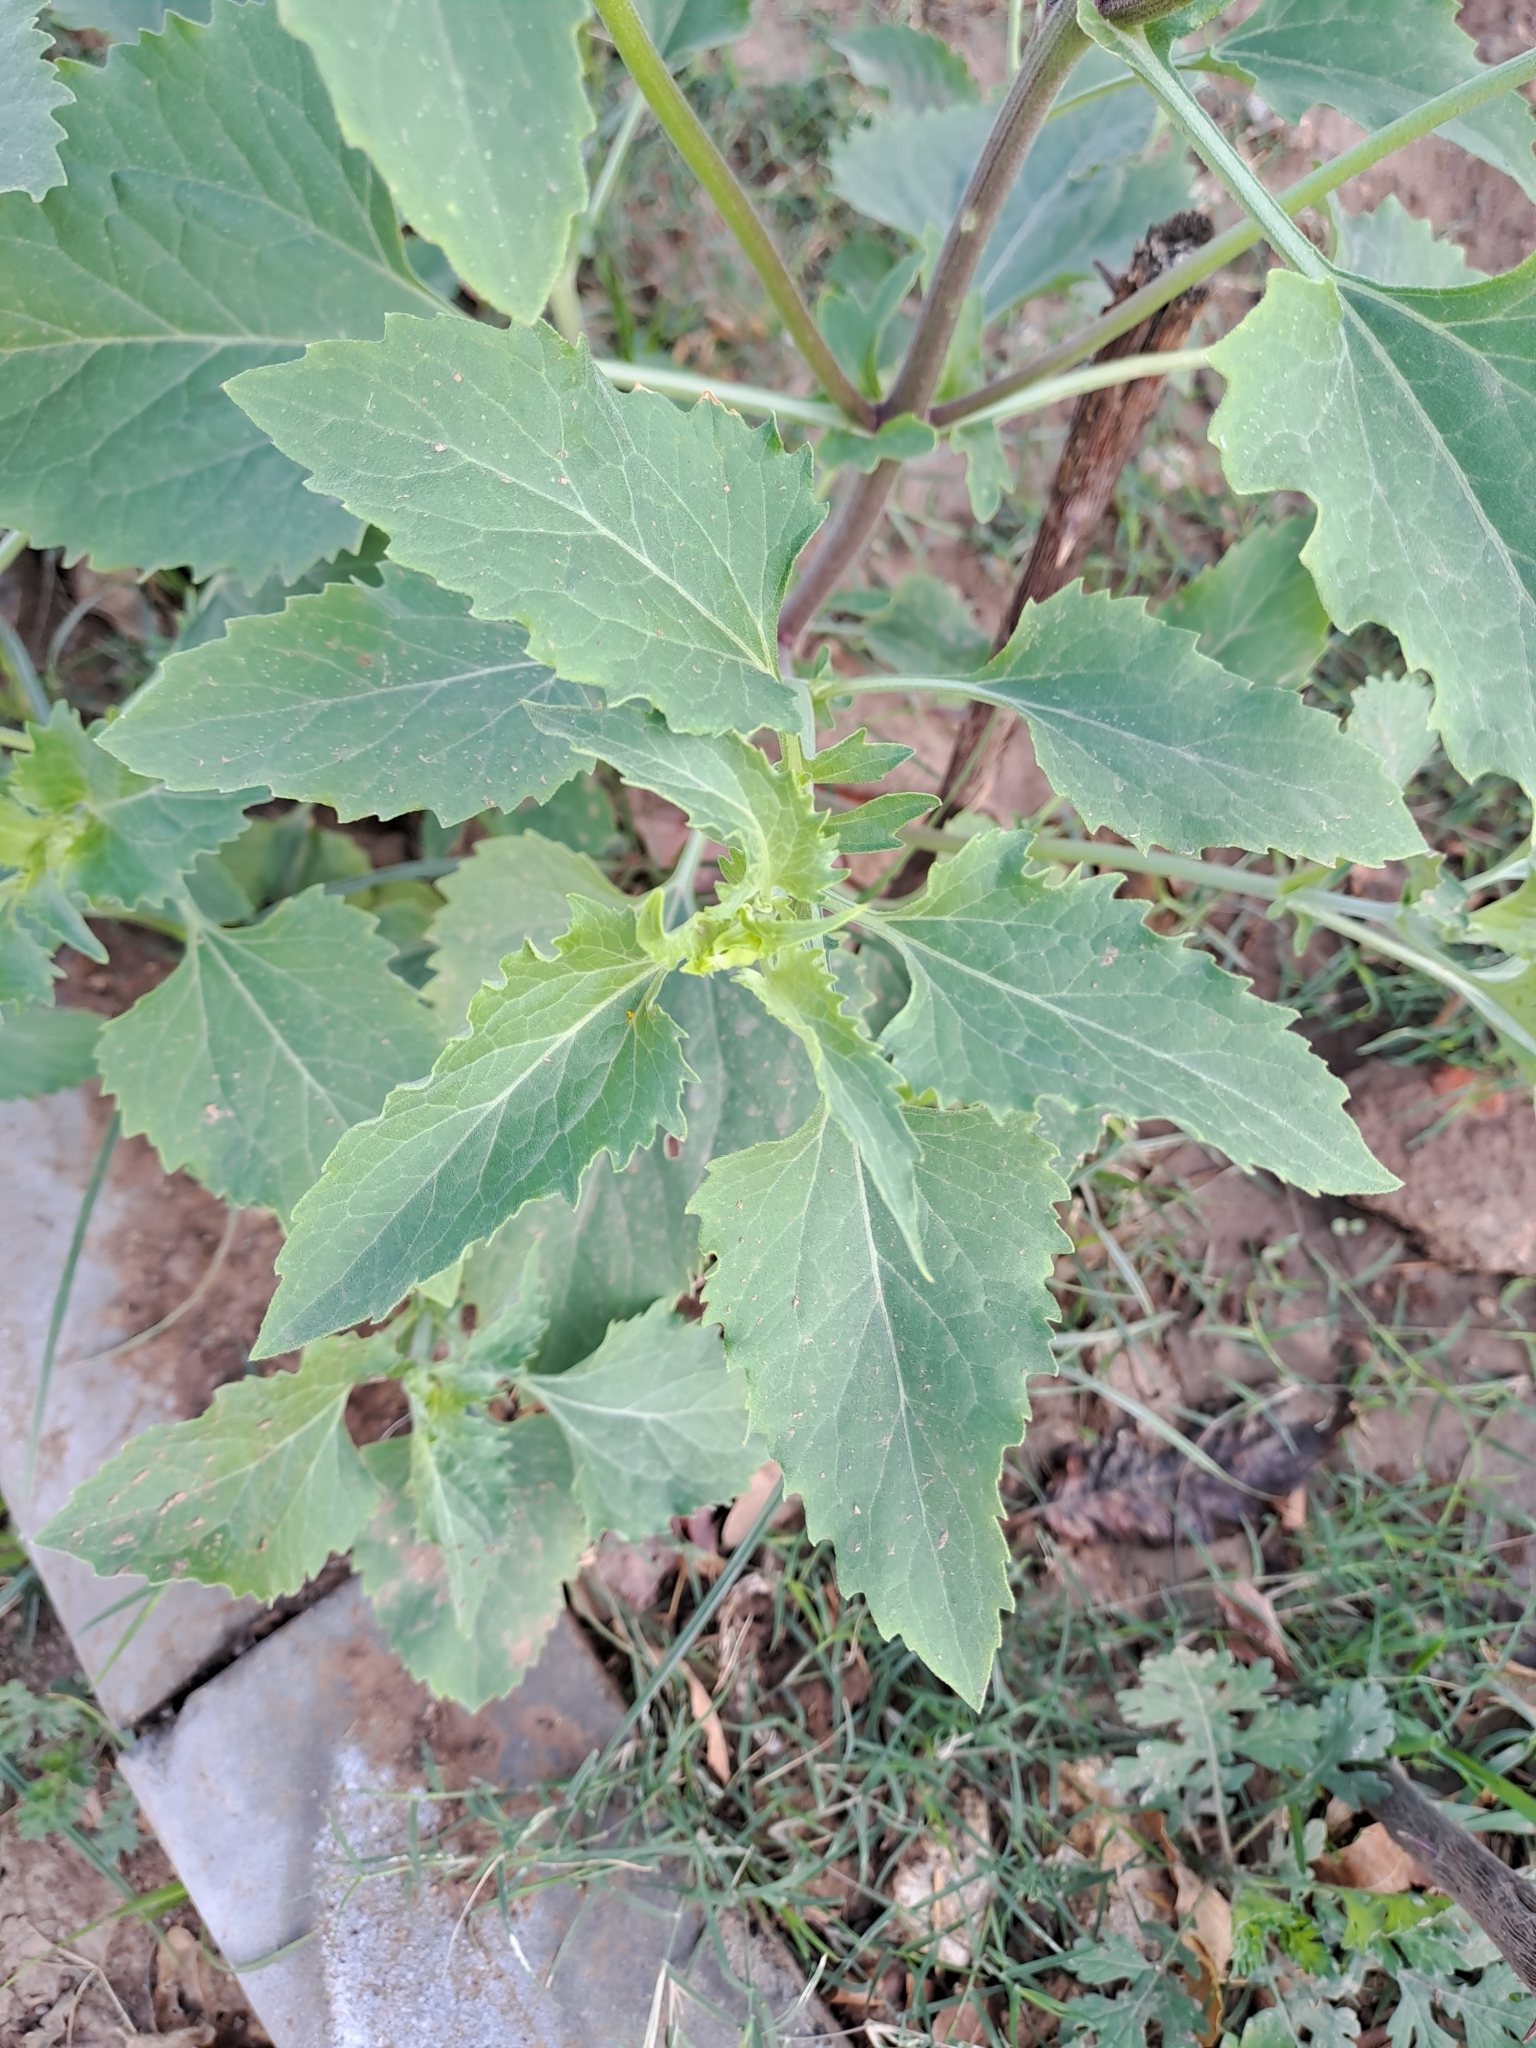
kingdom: Plantae
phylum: Tracheophyta
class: Magnoliopsida
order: Asterales
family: Asteraceae
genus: Verbesina
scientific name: Verbesina encelioides
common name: Golden crownbeard
